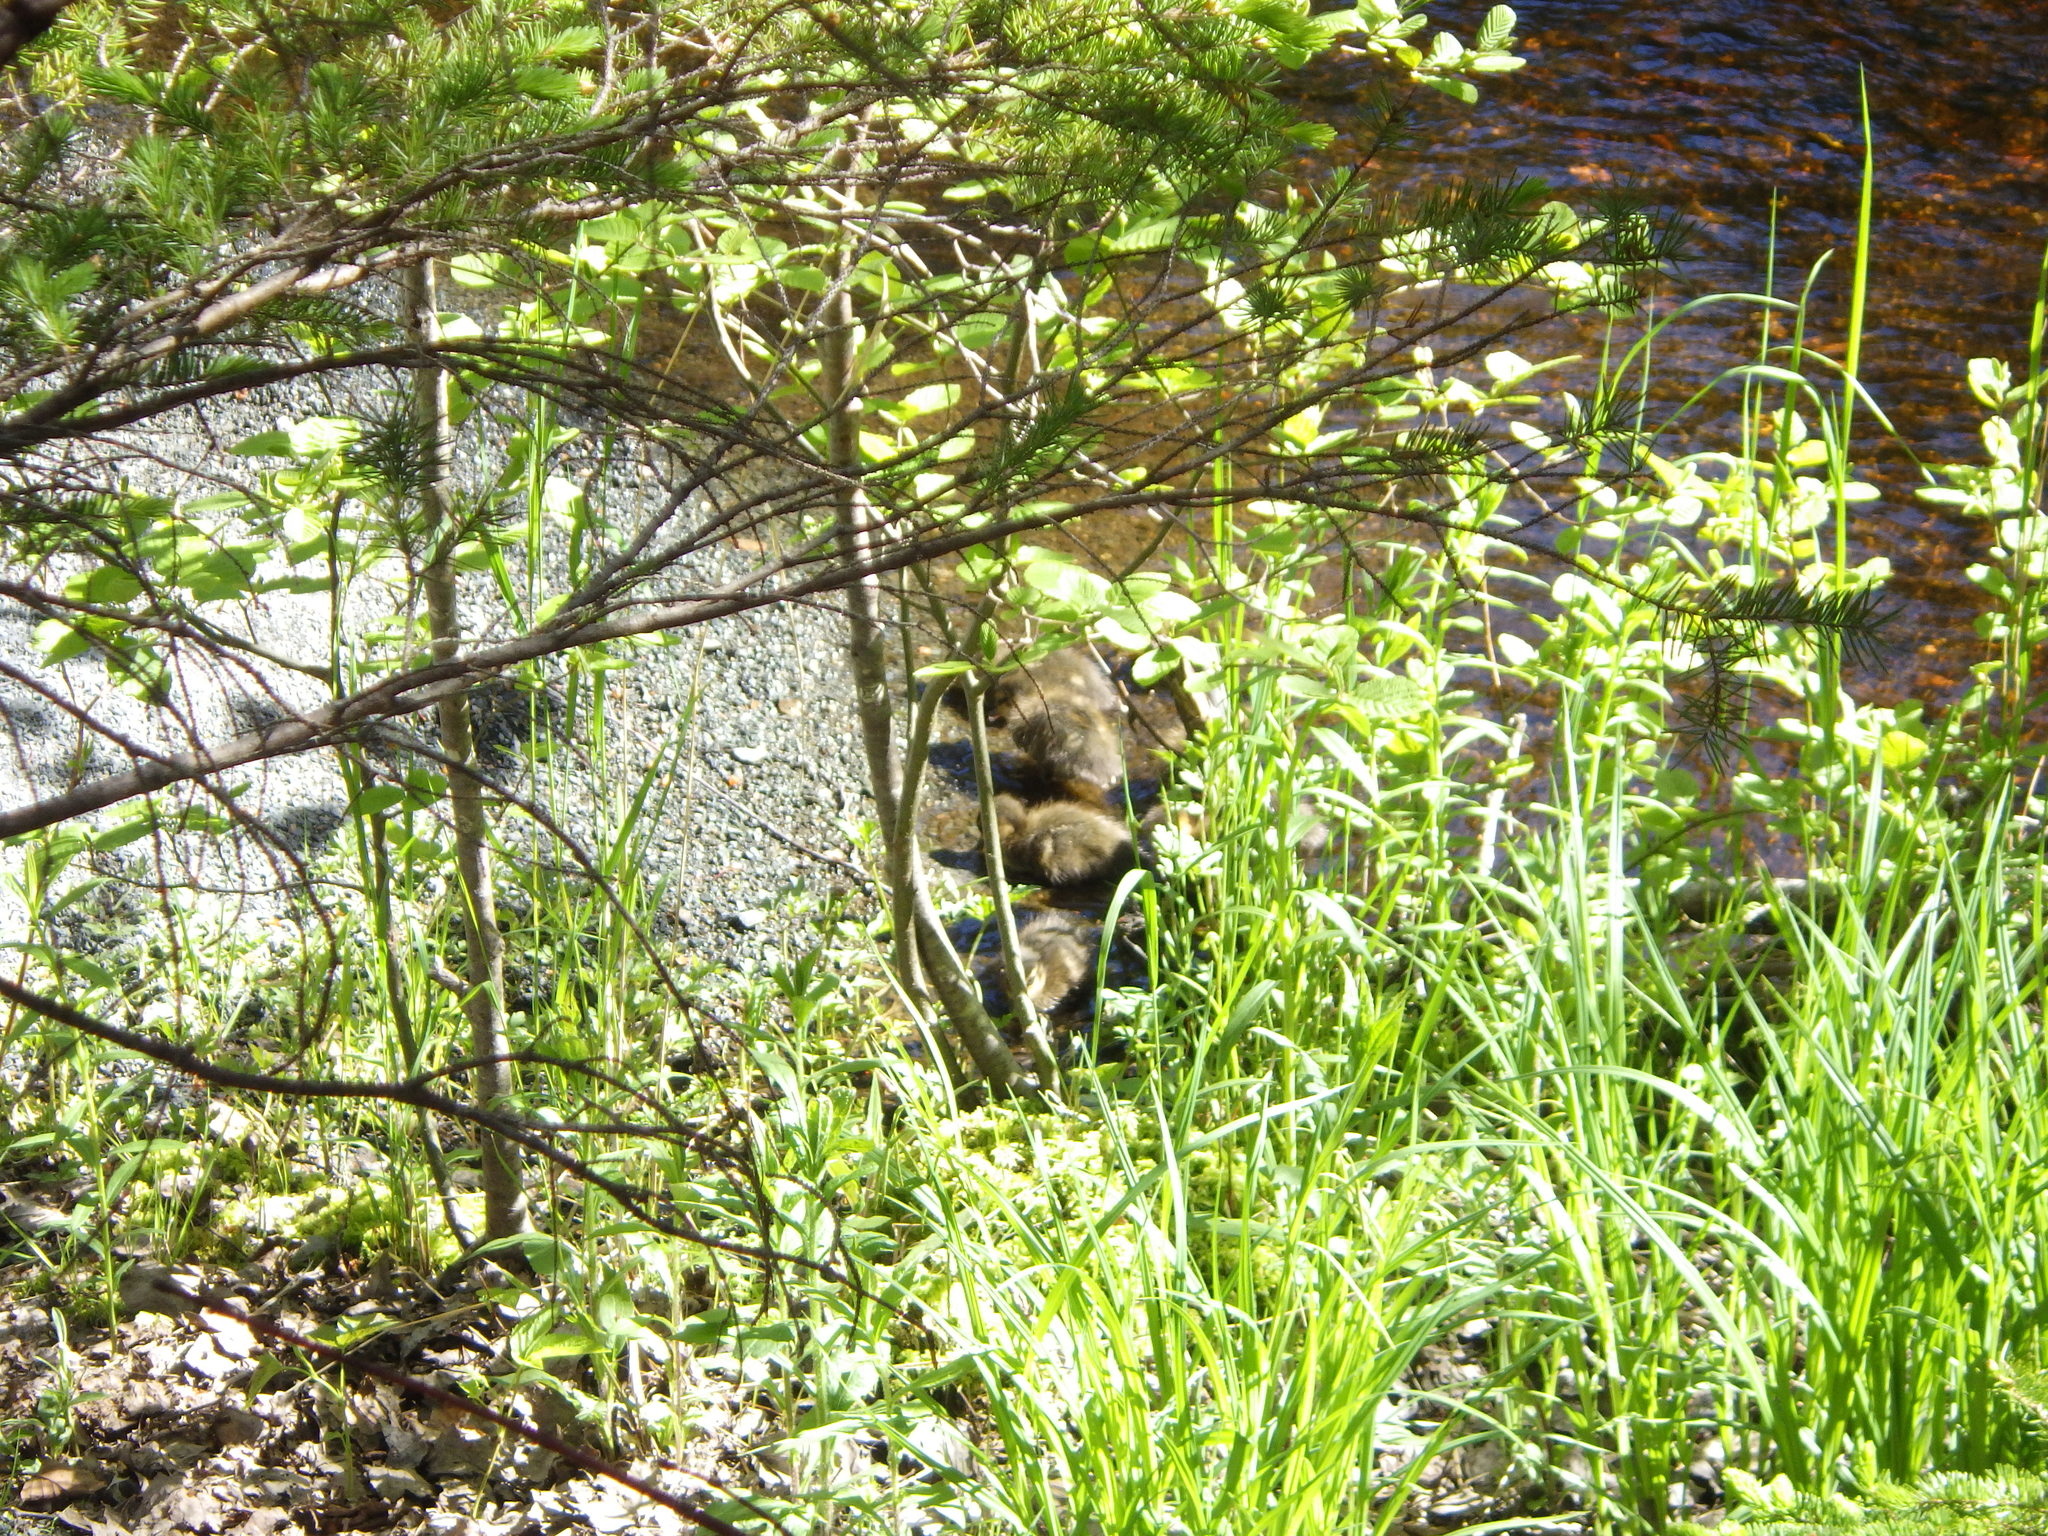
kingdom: Animalia
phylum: Chordata
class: Aves
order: Anseriformes
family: Anatidae
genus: Anas
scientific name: Anas rubripes
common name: American black duck
